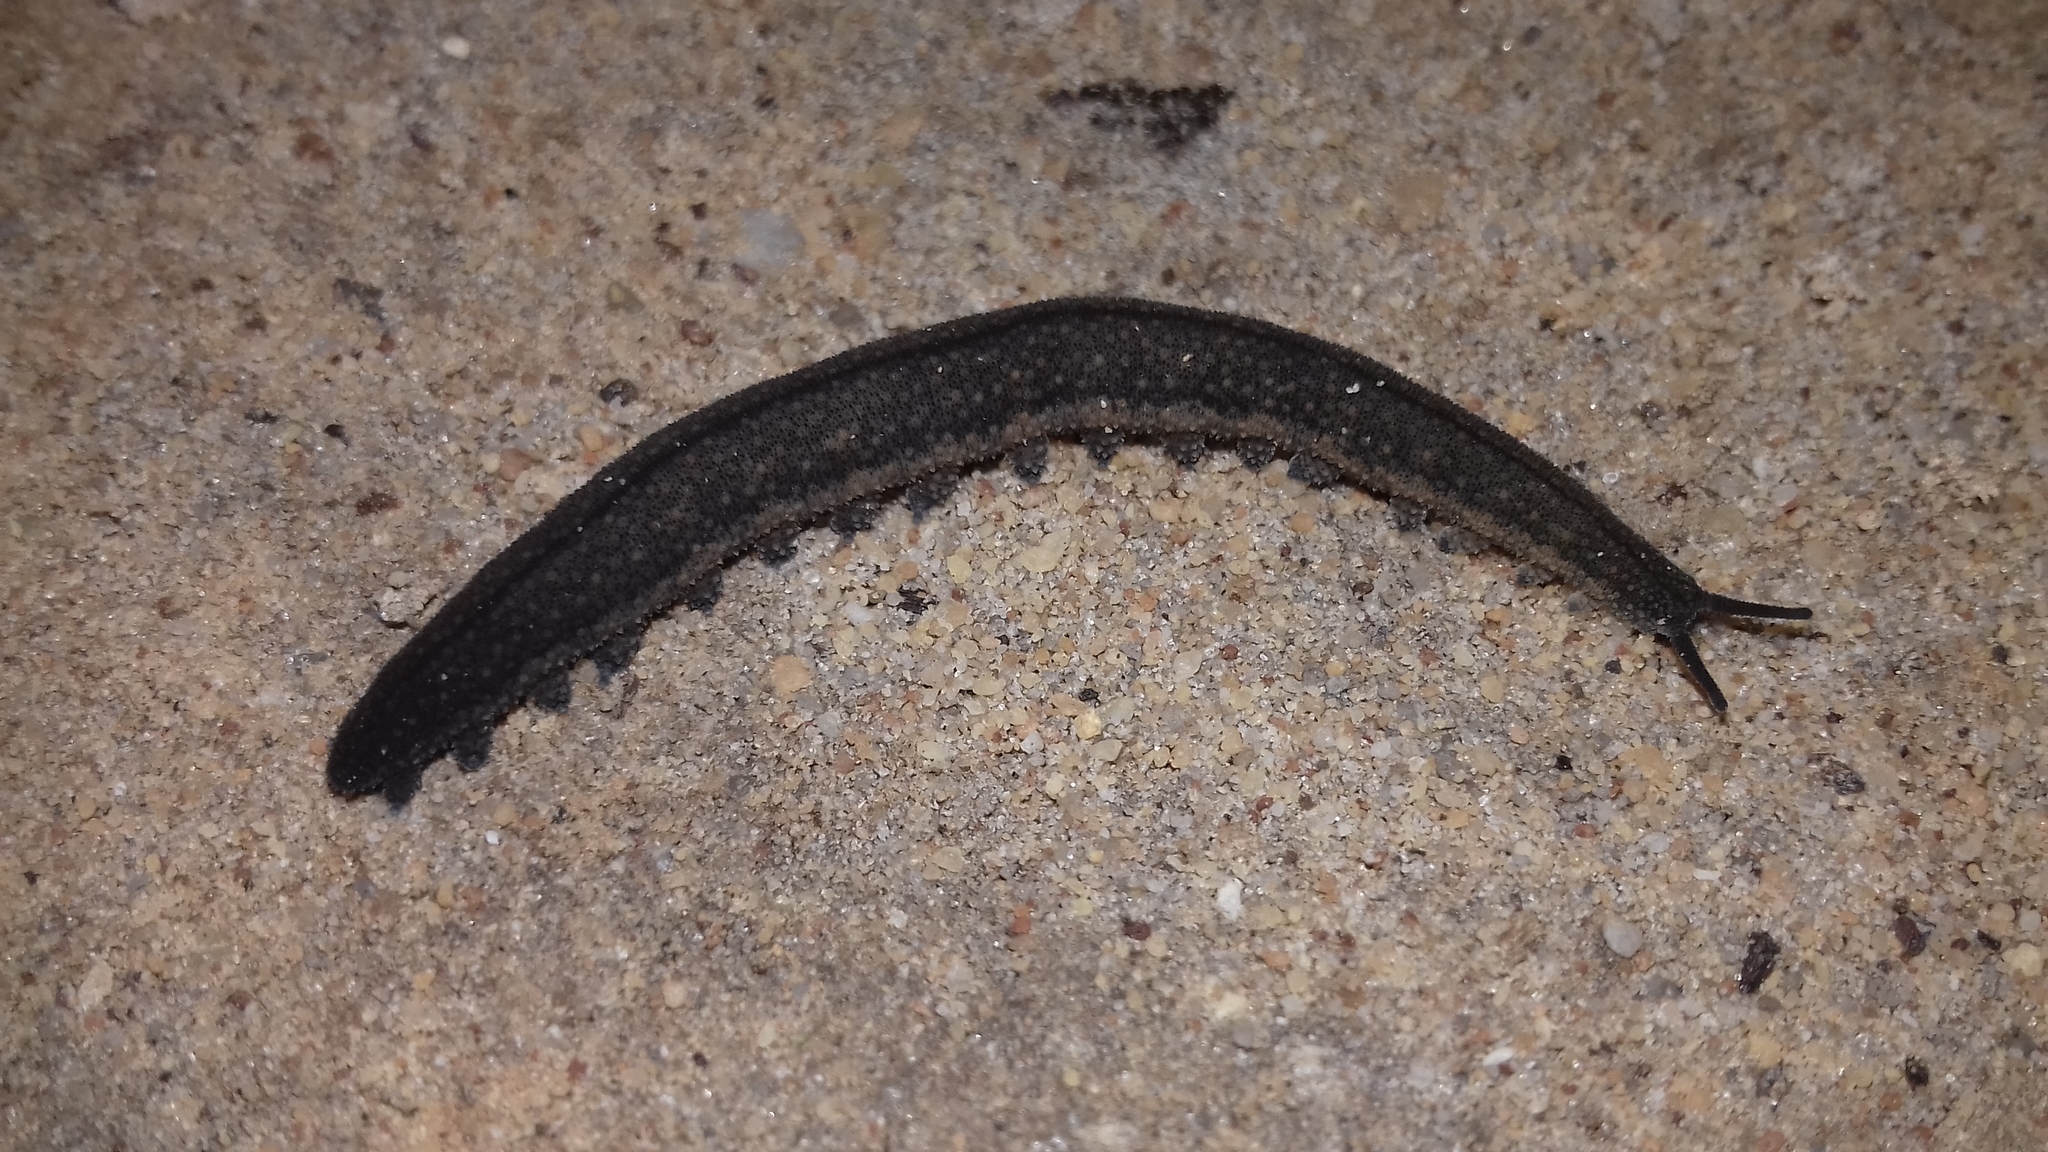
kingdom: Animalia
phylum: Onychophora
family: Peripatopsidae
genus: Peripatopsis
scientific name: Peripatopsis lawrencei
